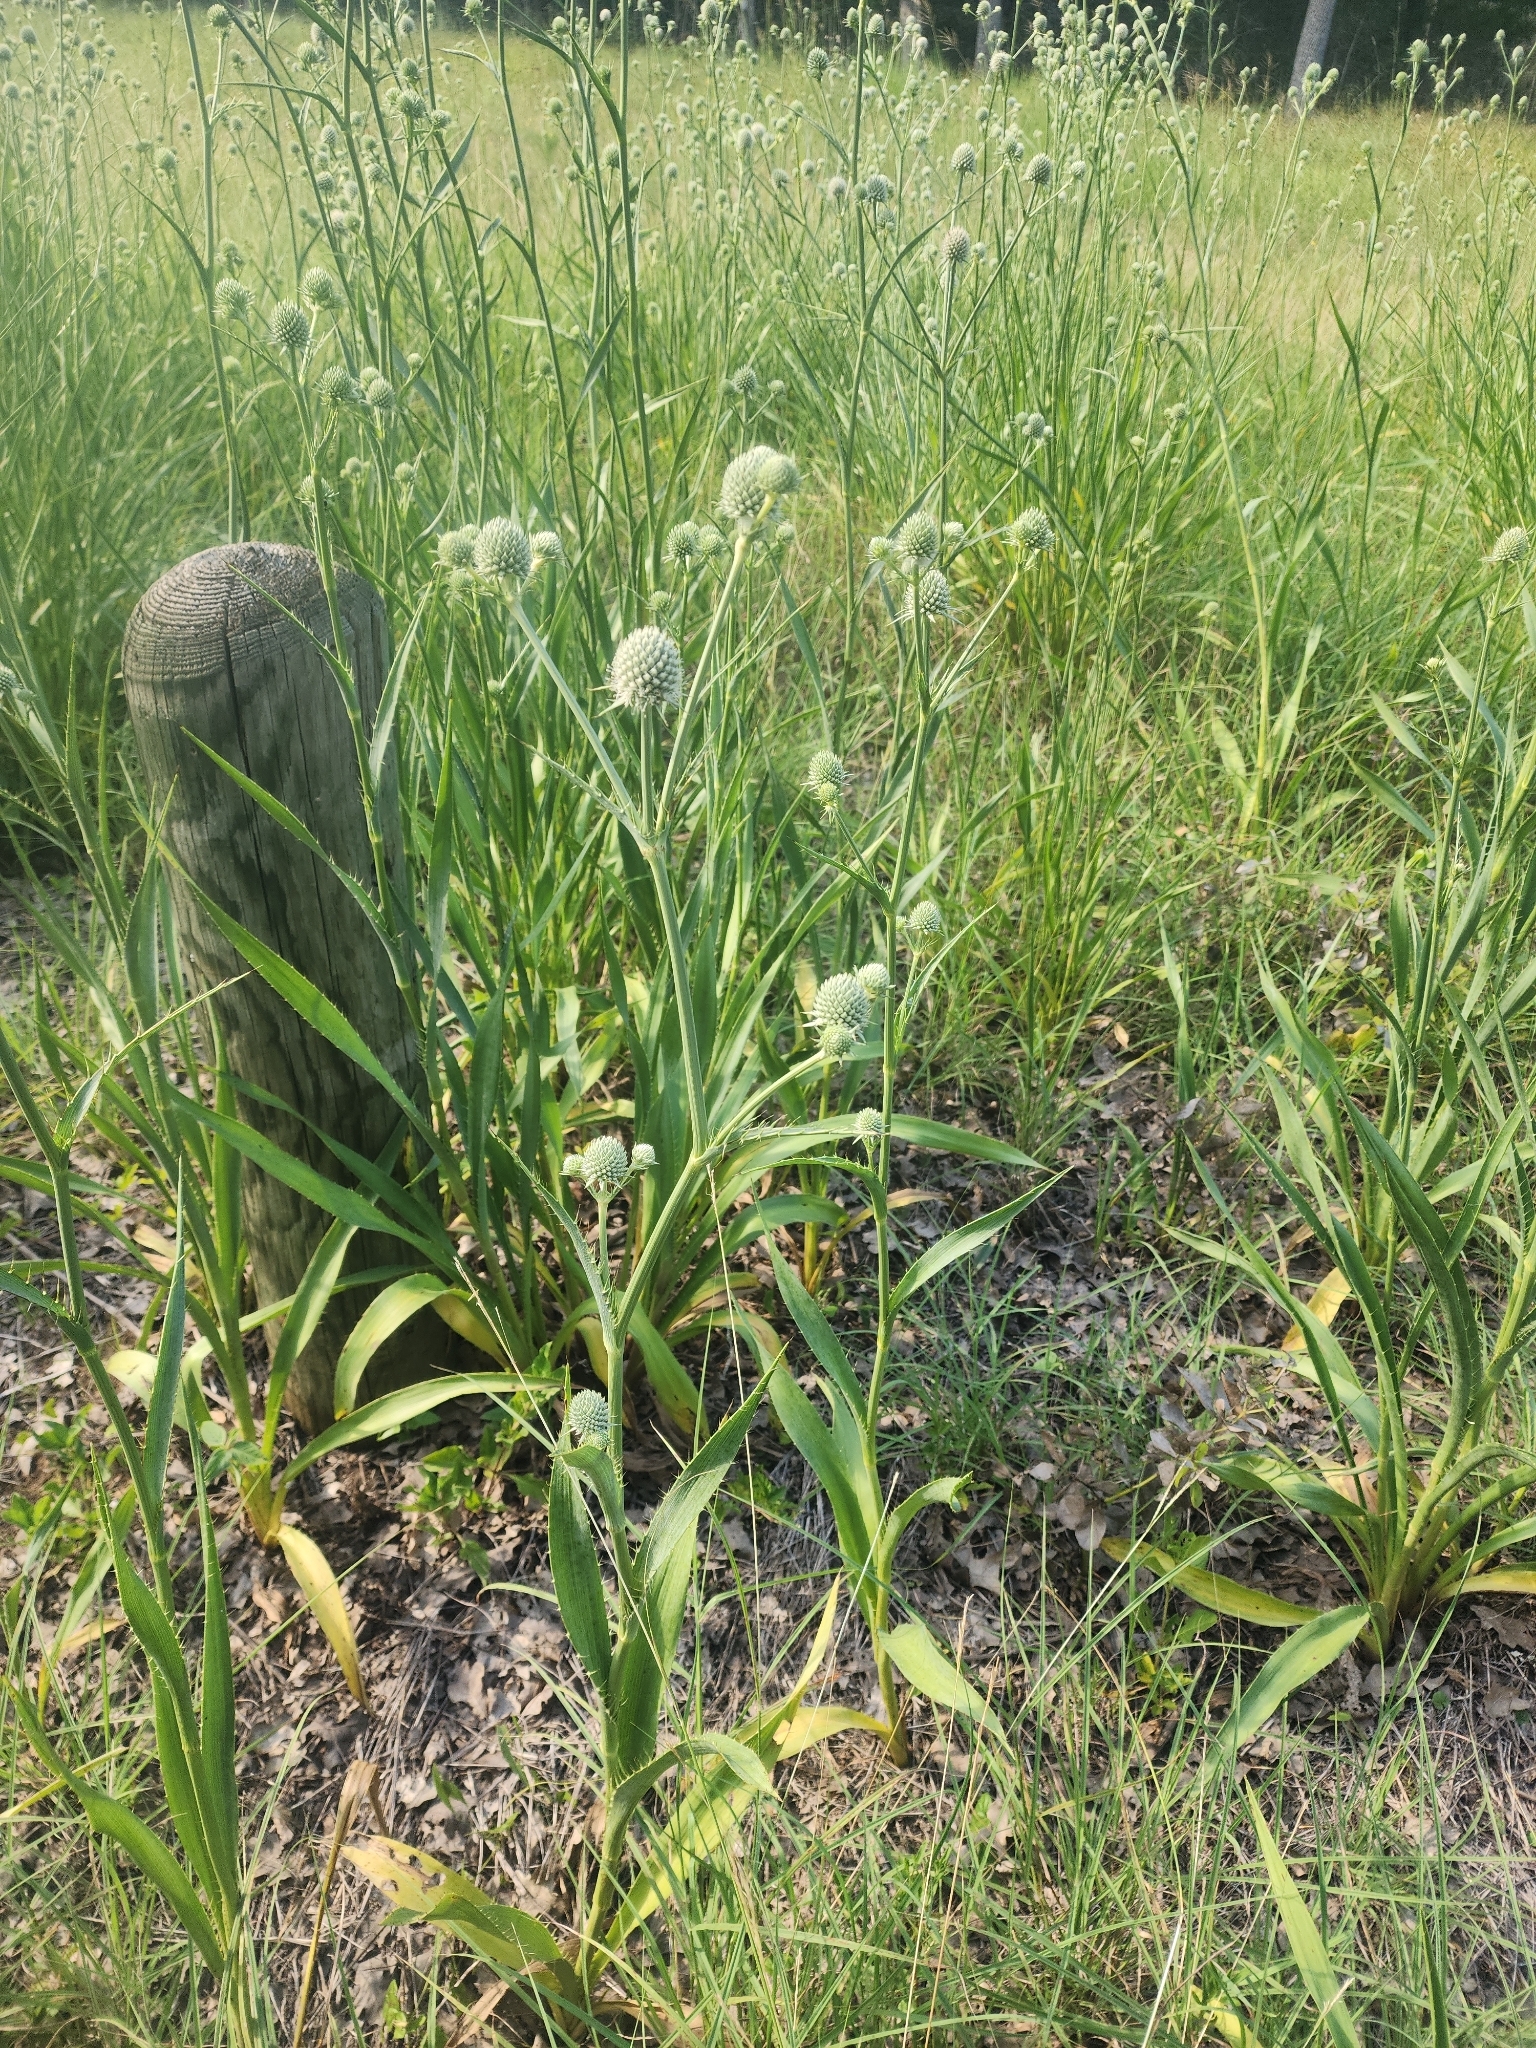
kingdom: Plantae
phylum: Tracheophyta
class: Magnoliopsida
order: Apiales
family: Apiaceae
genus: Eryngium
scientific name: Eryngium yuccifolium
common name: Button eryngo
